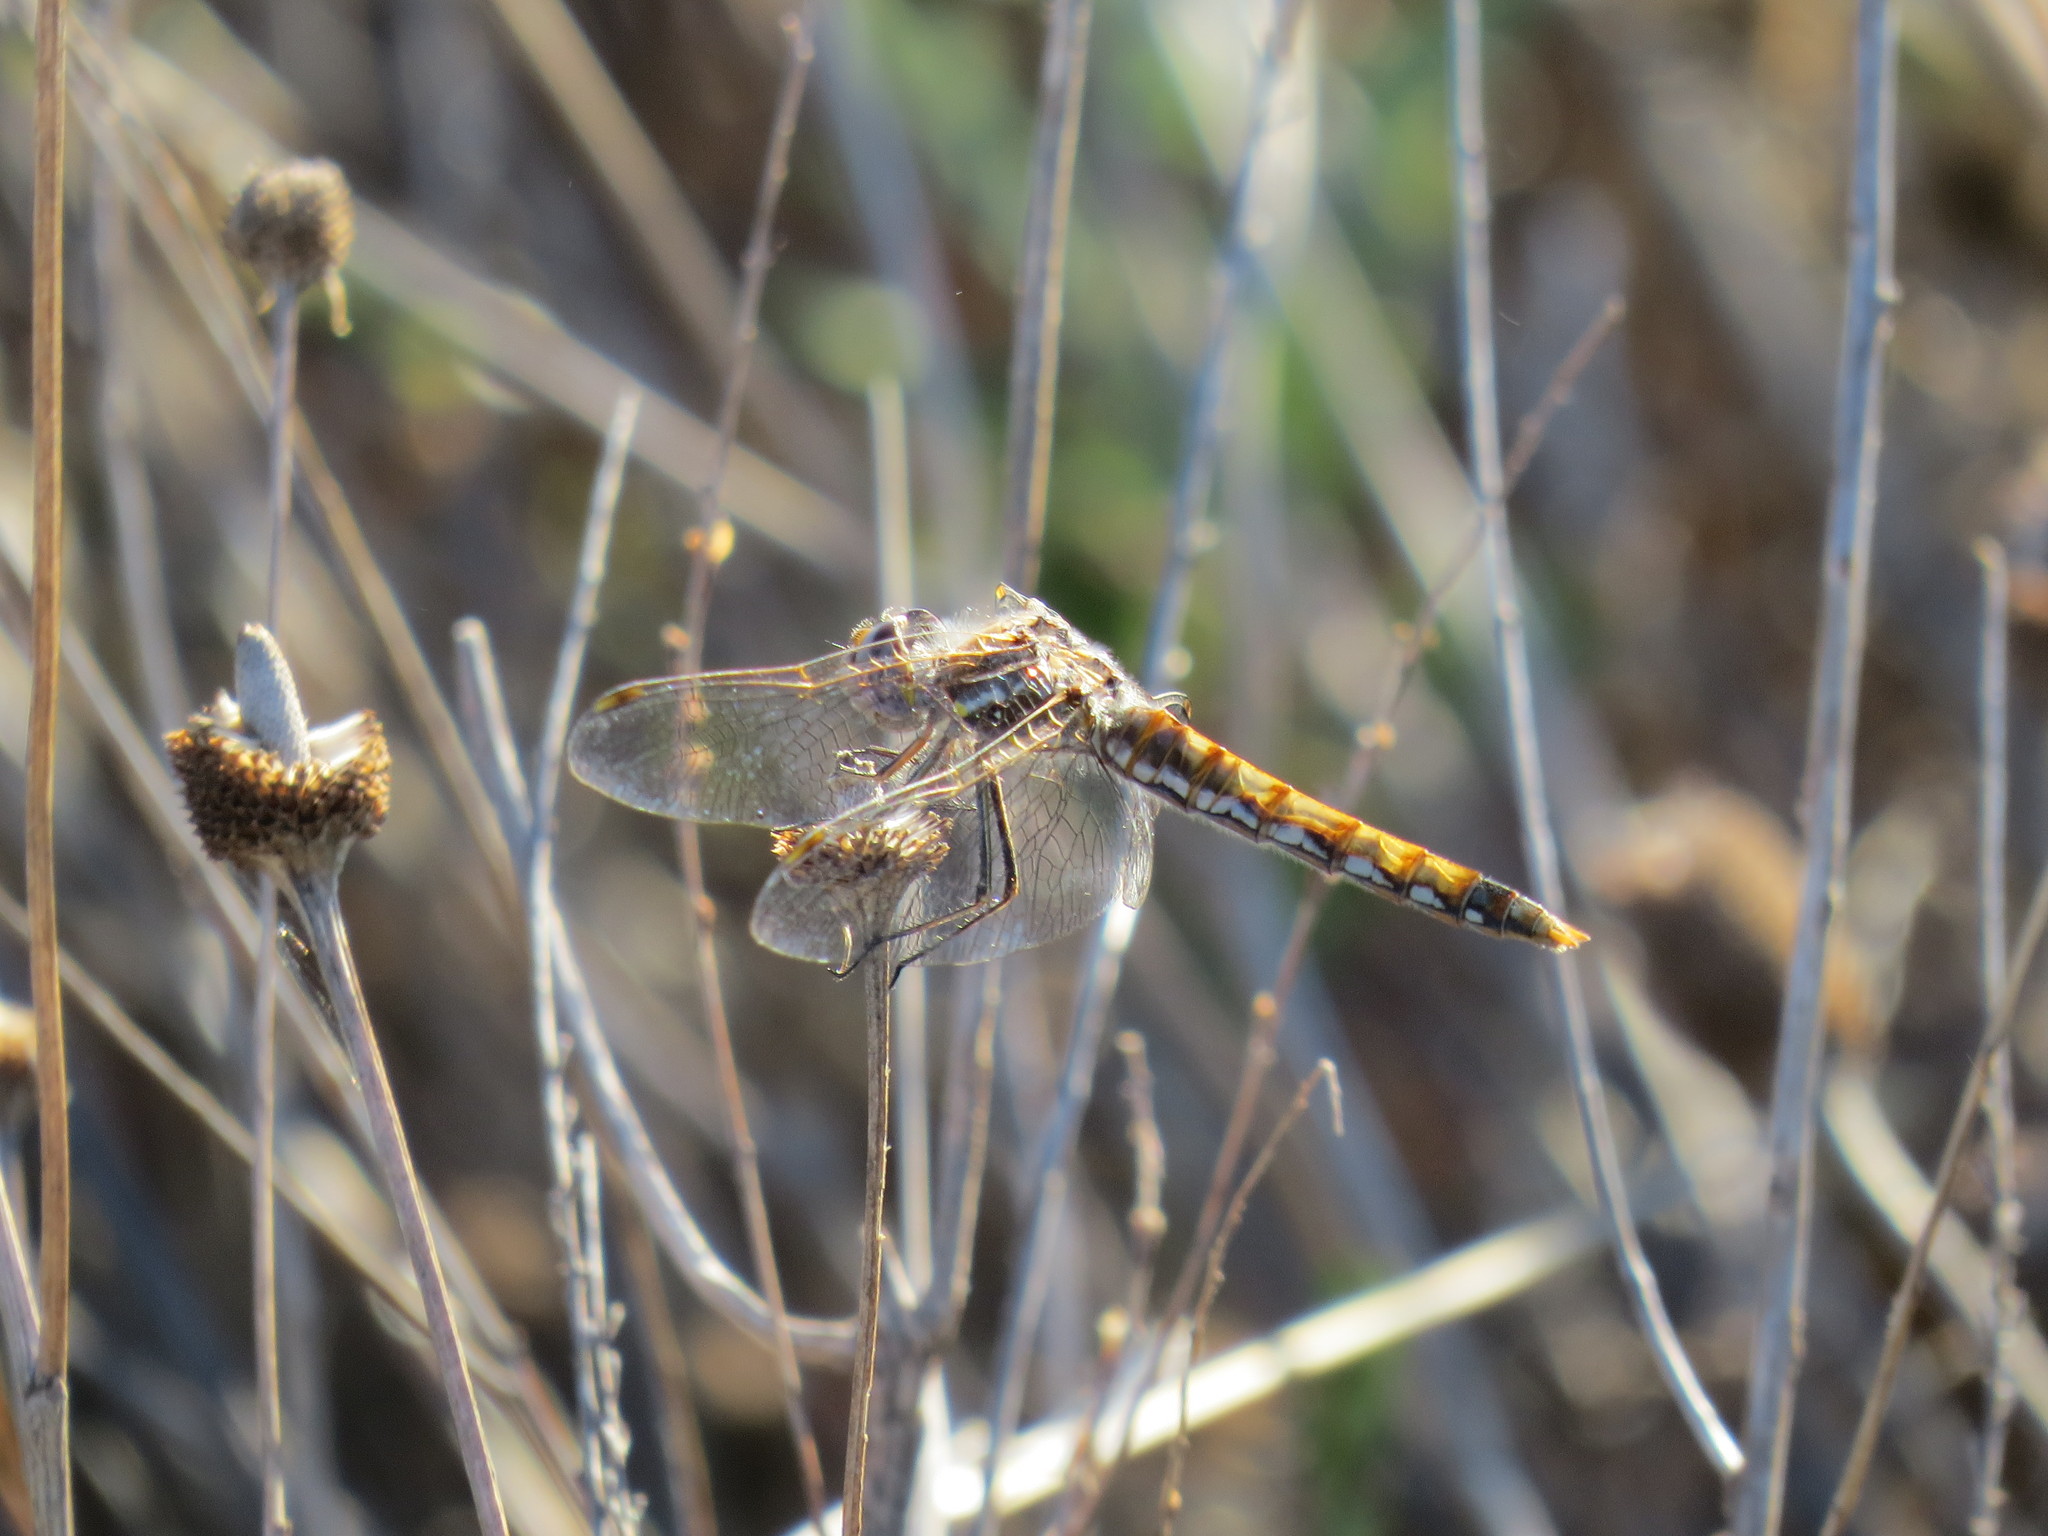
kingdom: Animalia
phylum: Arthropoda
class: Insecta
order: Odonata
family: Libellulidae
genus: Sympetrum
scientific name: Sympetrum corruptum
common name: Variegated meadowhawk
